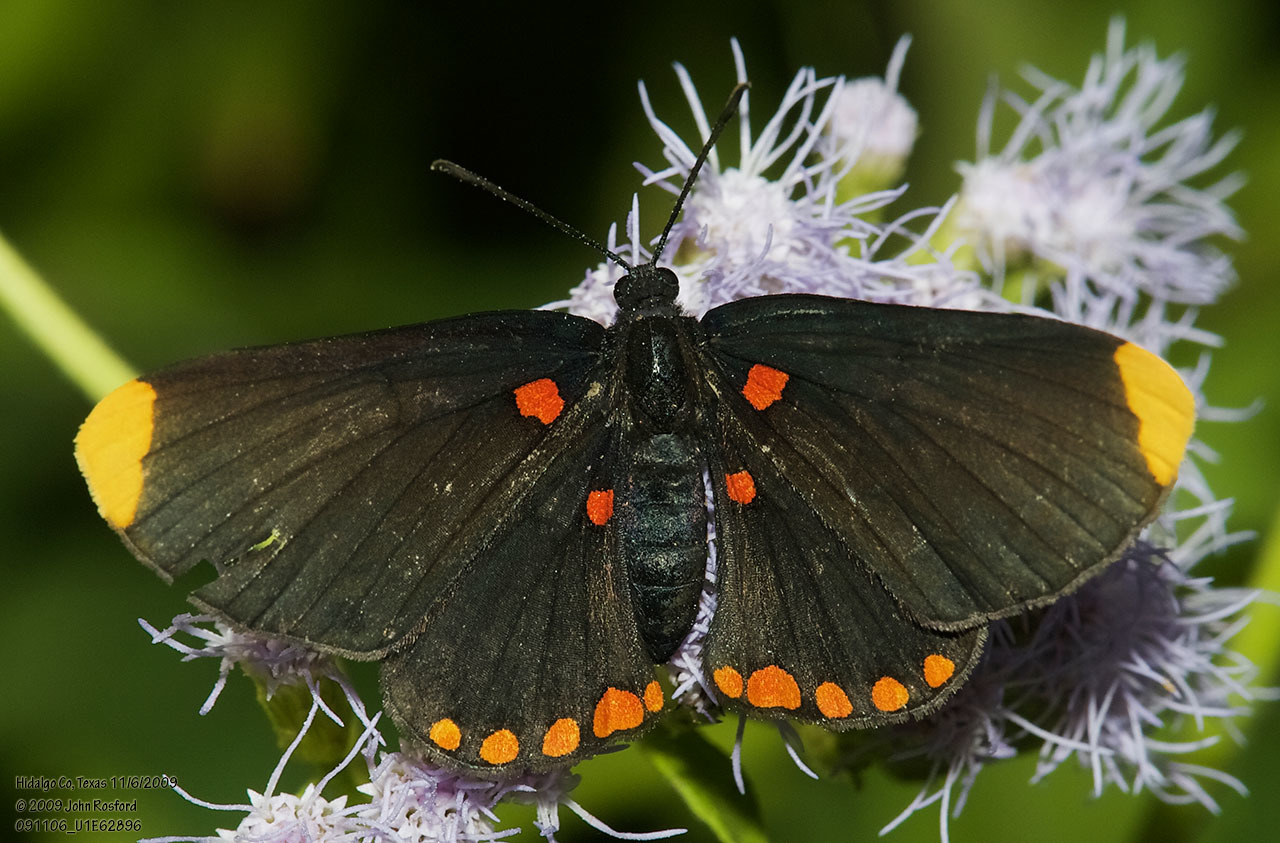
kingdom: Animalia
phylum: Arthropoda
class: Insecta
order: Lepidoptera
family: Lycaenidae
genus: Melanis
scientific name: Melanis pixe
